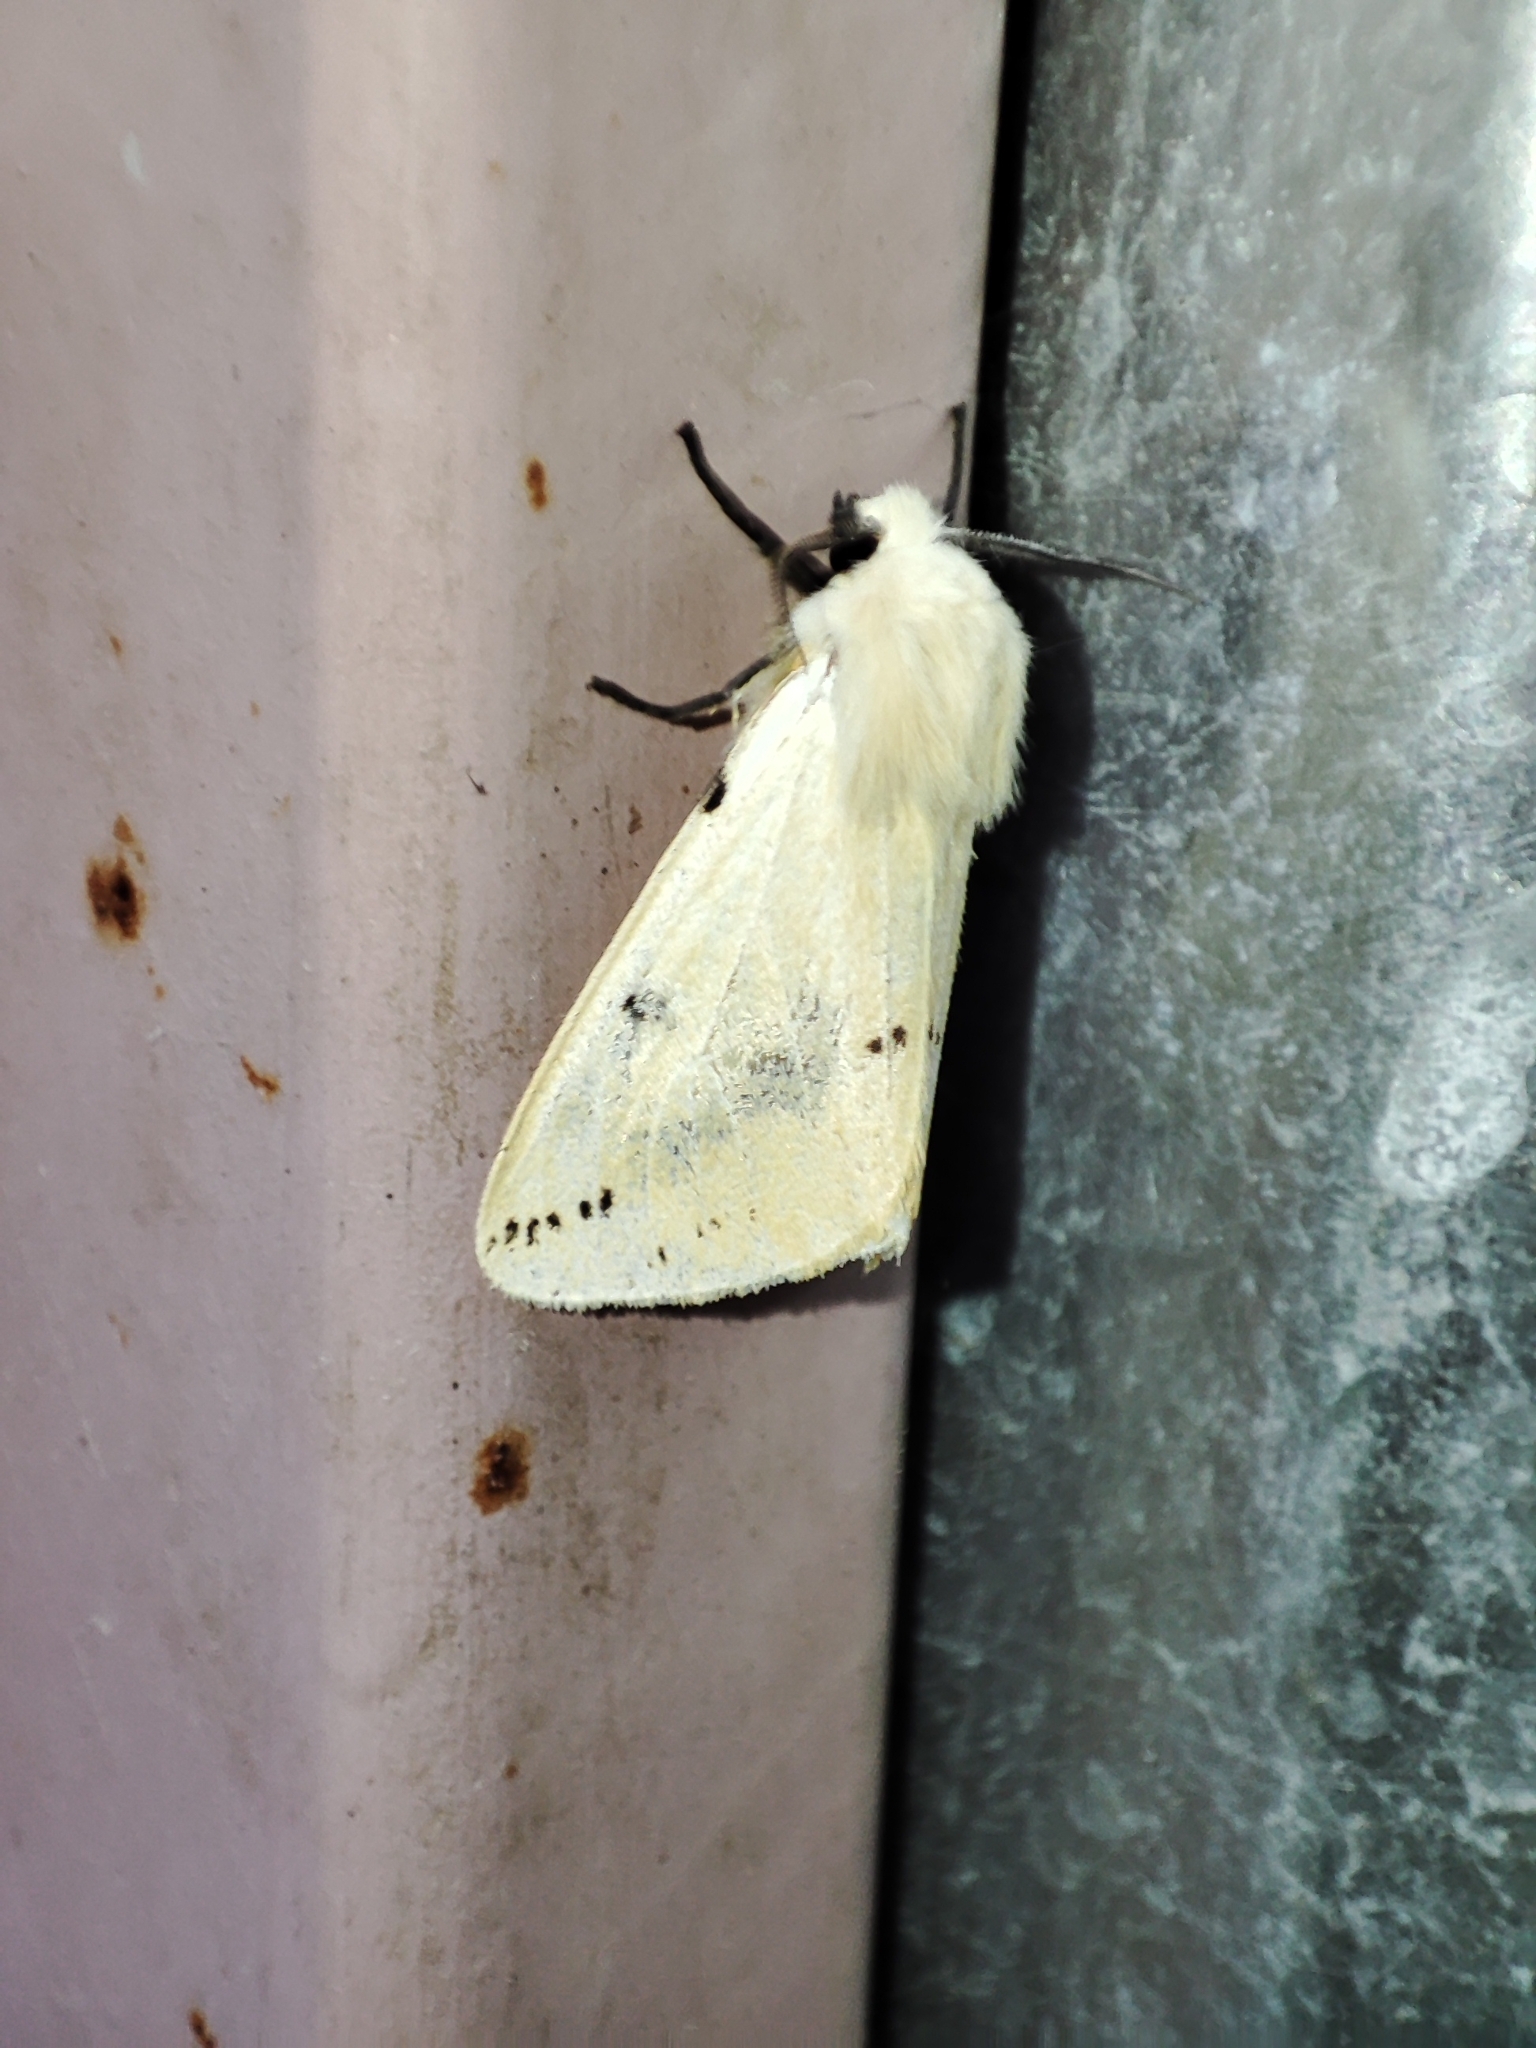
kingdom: Animalia
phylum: Arthropoda
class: Insecta
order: Lepidoptera
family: Erebidae
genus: Spilarctia
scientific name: Spilarctia lutea
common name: Buff ermine
